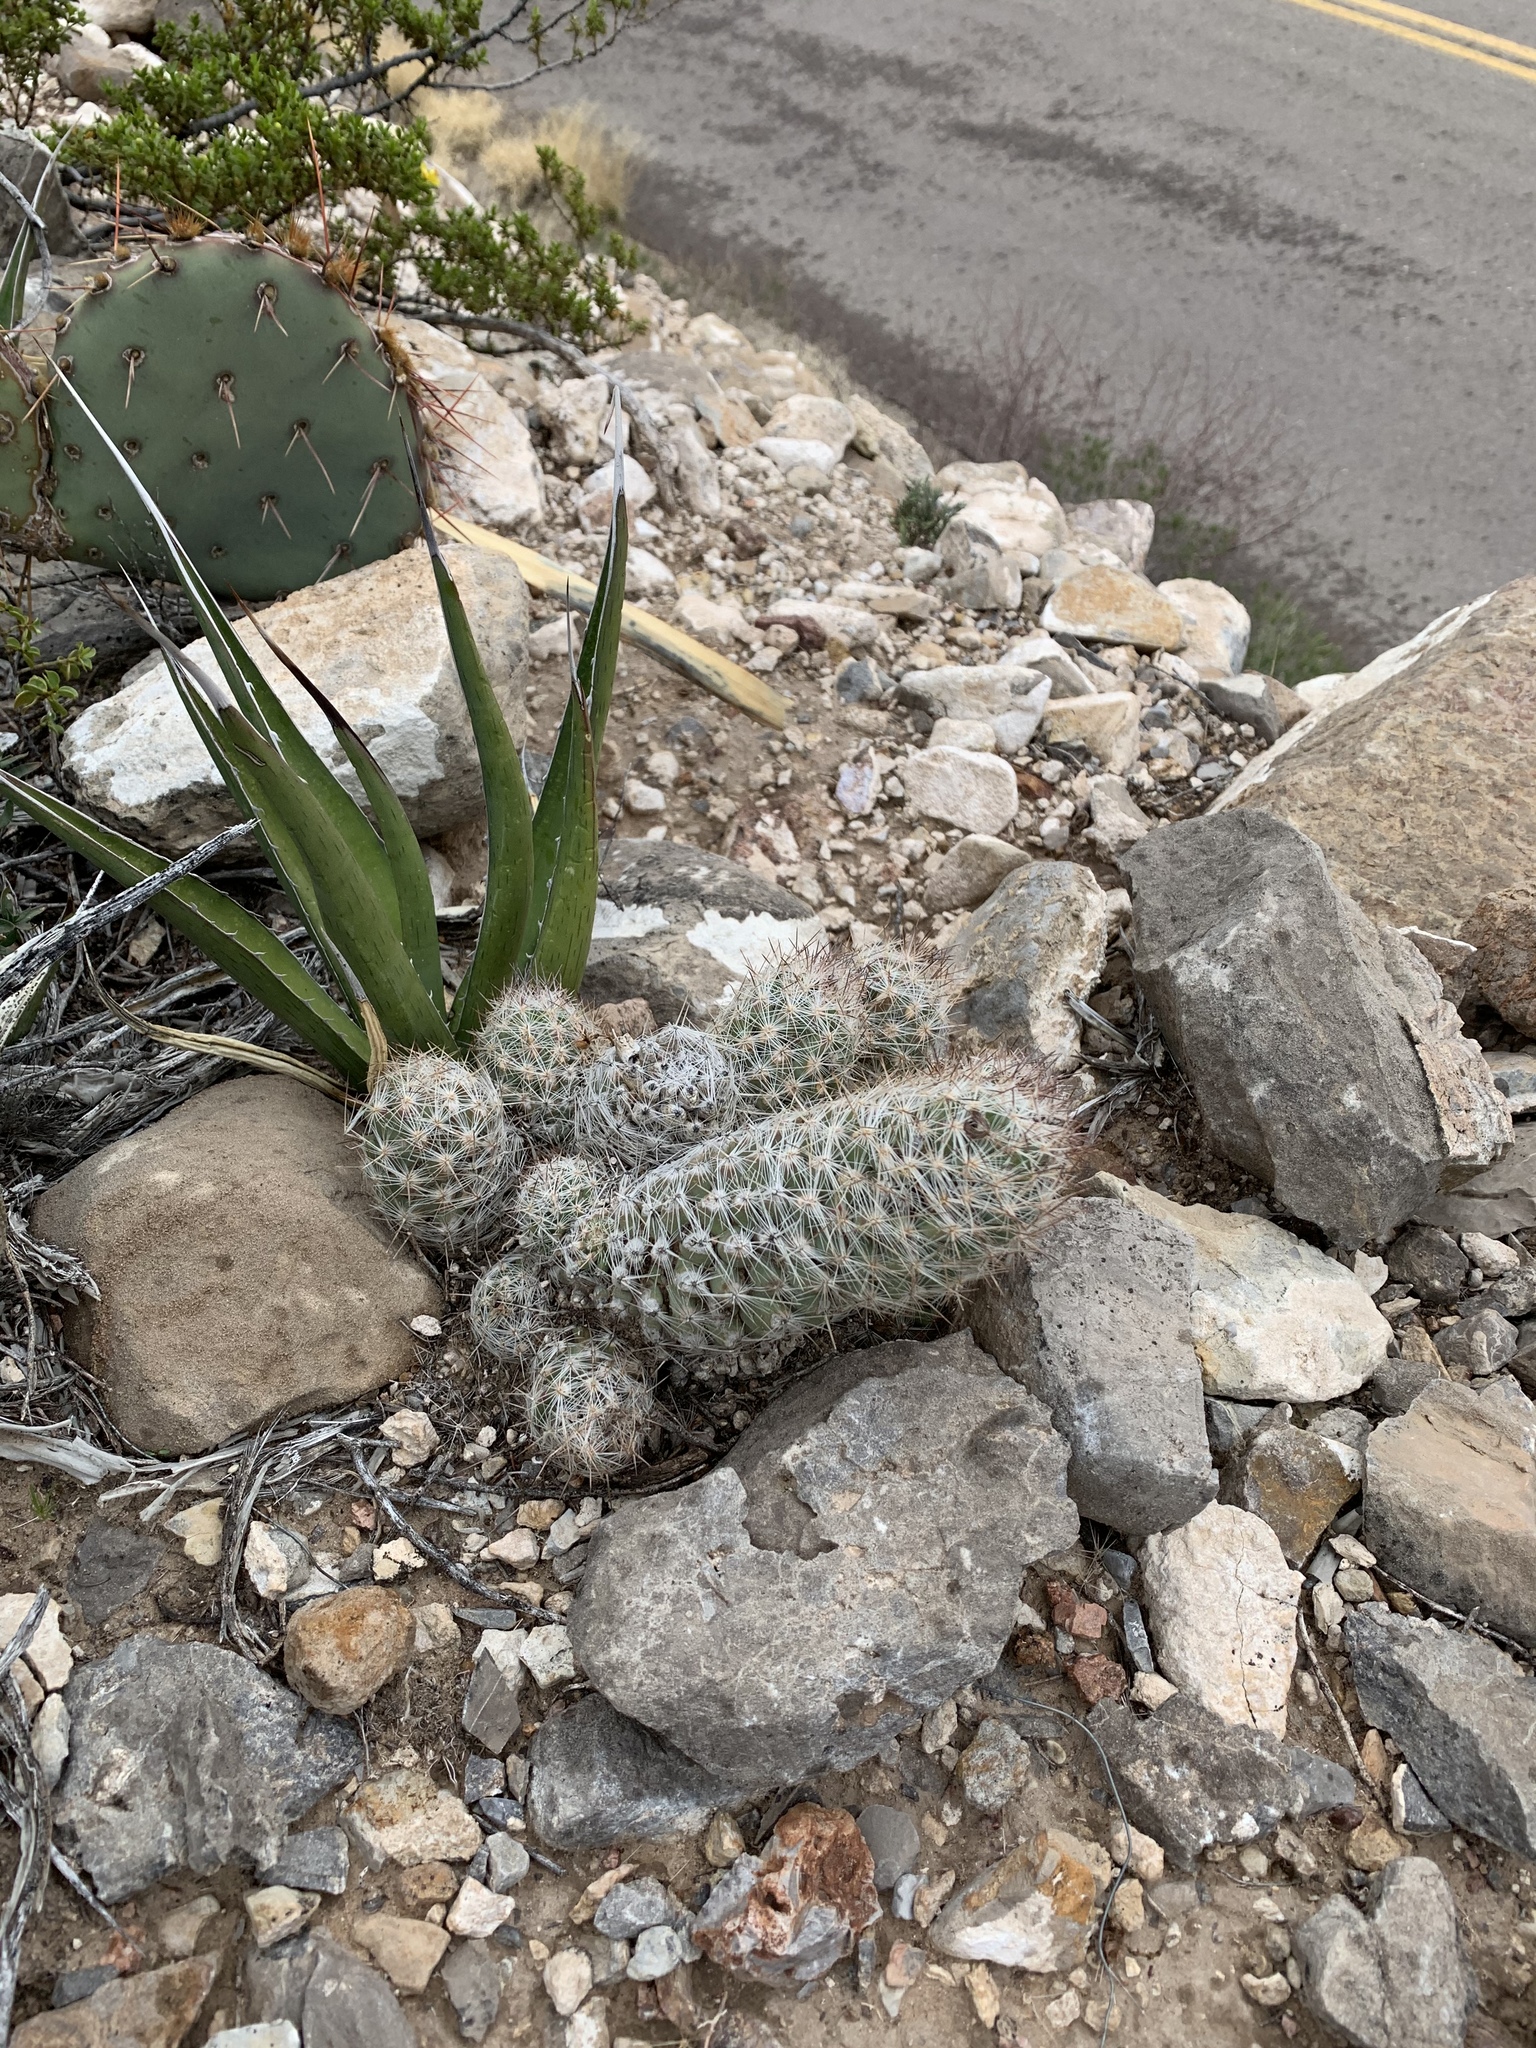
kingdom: Plantae
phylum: Tracheophyta
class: Magnoliopsida
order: Caryophyllales
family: Cactaceae
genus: Pelecyphora
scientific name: Pelecyphora tuberculosa
